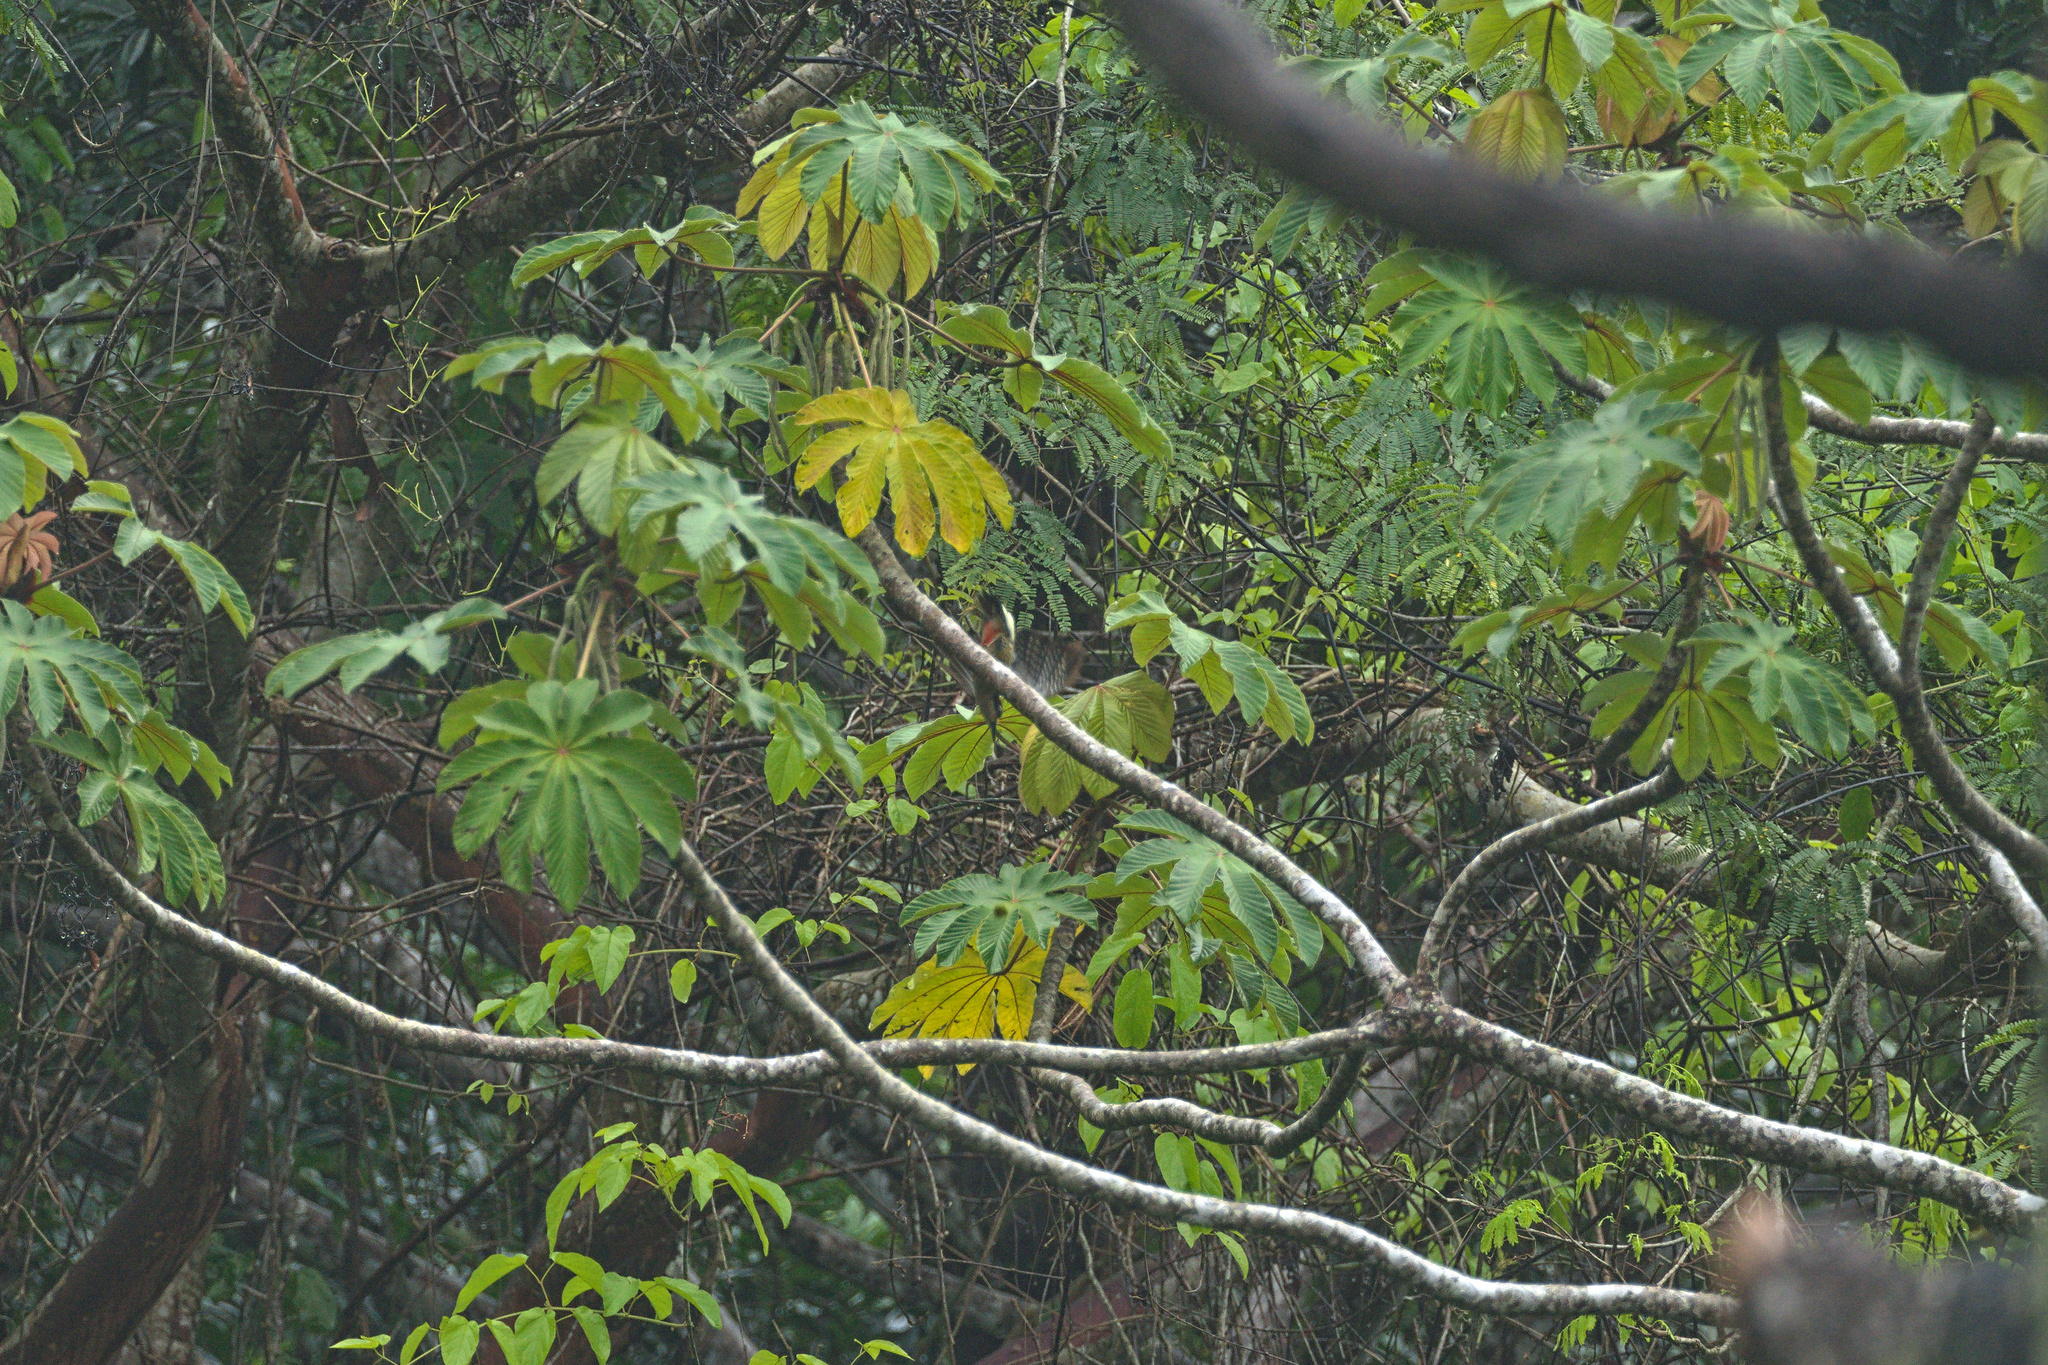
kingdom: Animalia
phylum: Chordata
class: Aves
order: Piciformes
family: Picidae
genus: Melanerpes
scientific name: Melanerpes pucherani
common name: Black-cheeked woodpecker
